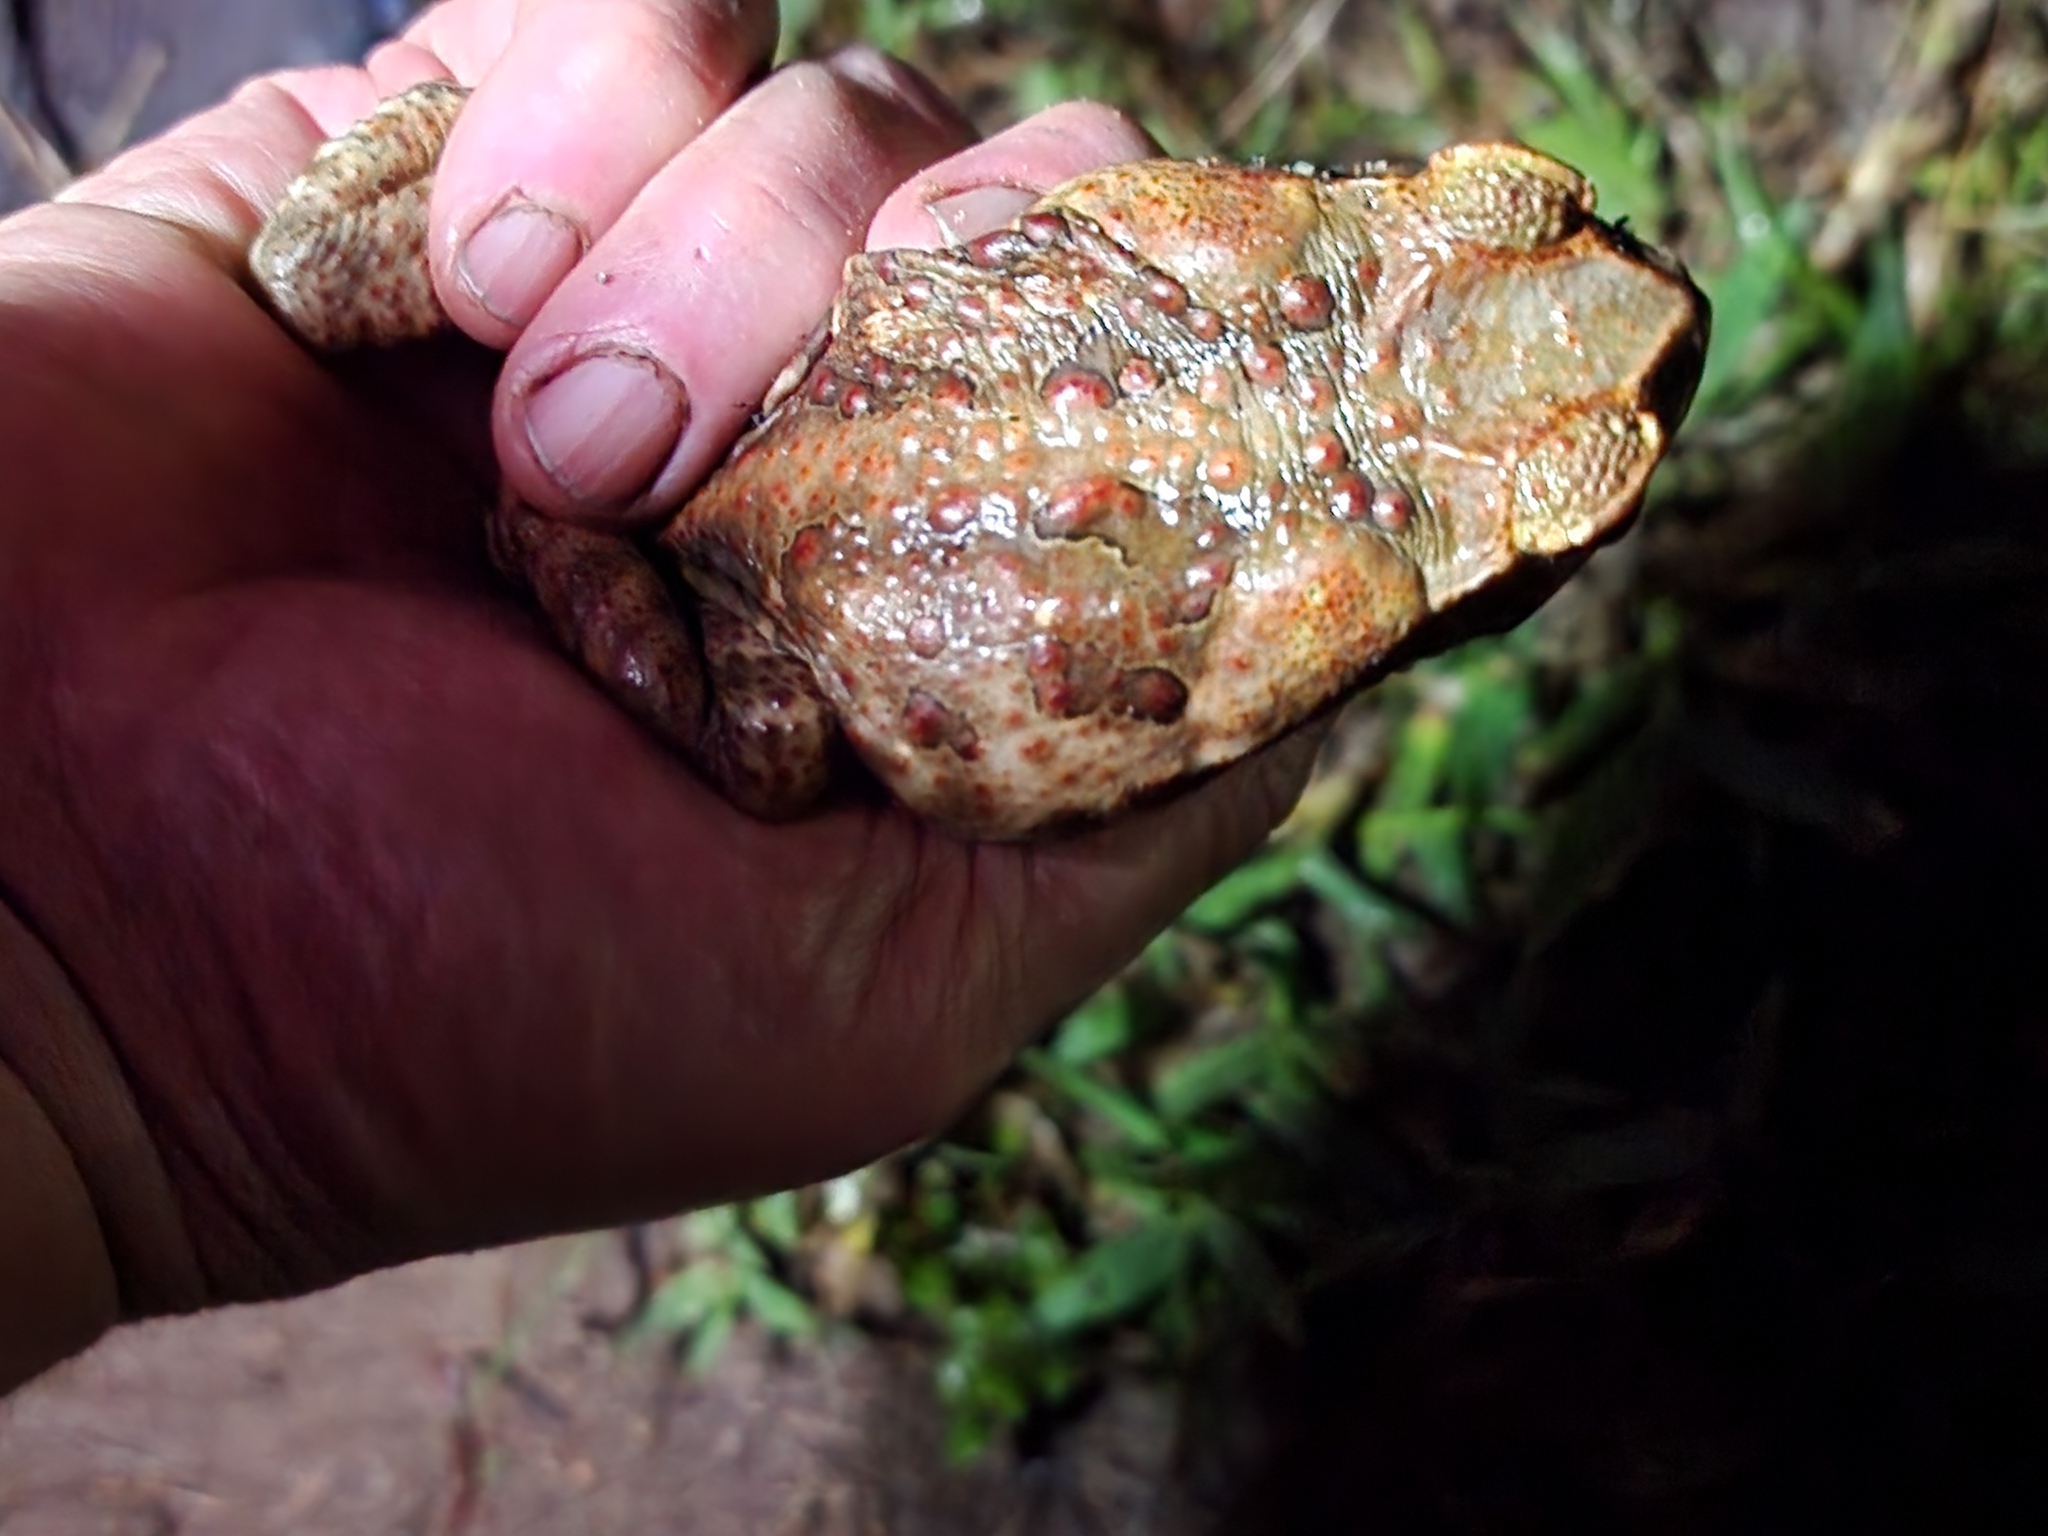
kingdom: Animalia
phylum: Chordata
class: Amphibia
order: Anura
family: Bufonidae
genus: Rhinella
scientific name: Rhinella marina
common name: Cane toad
